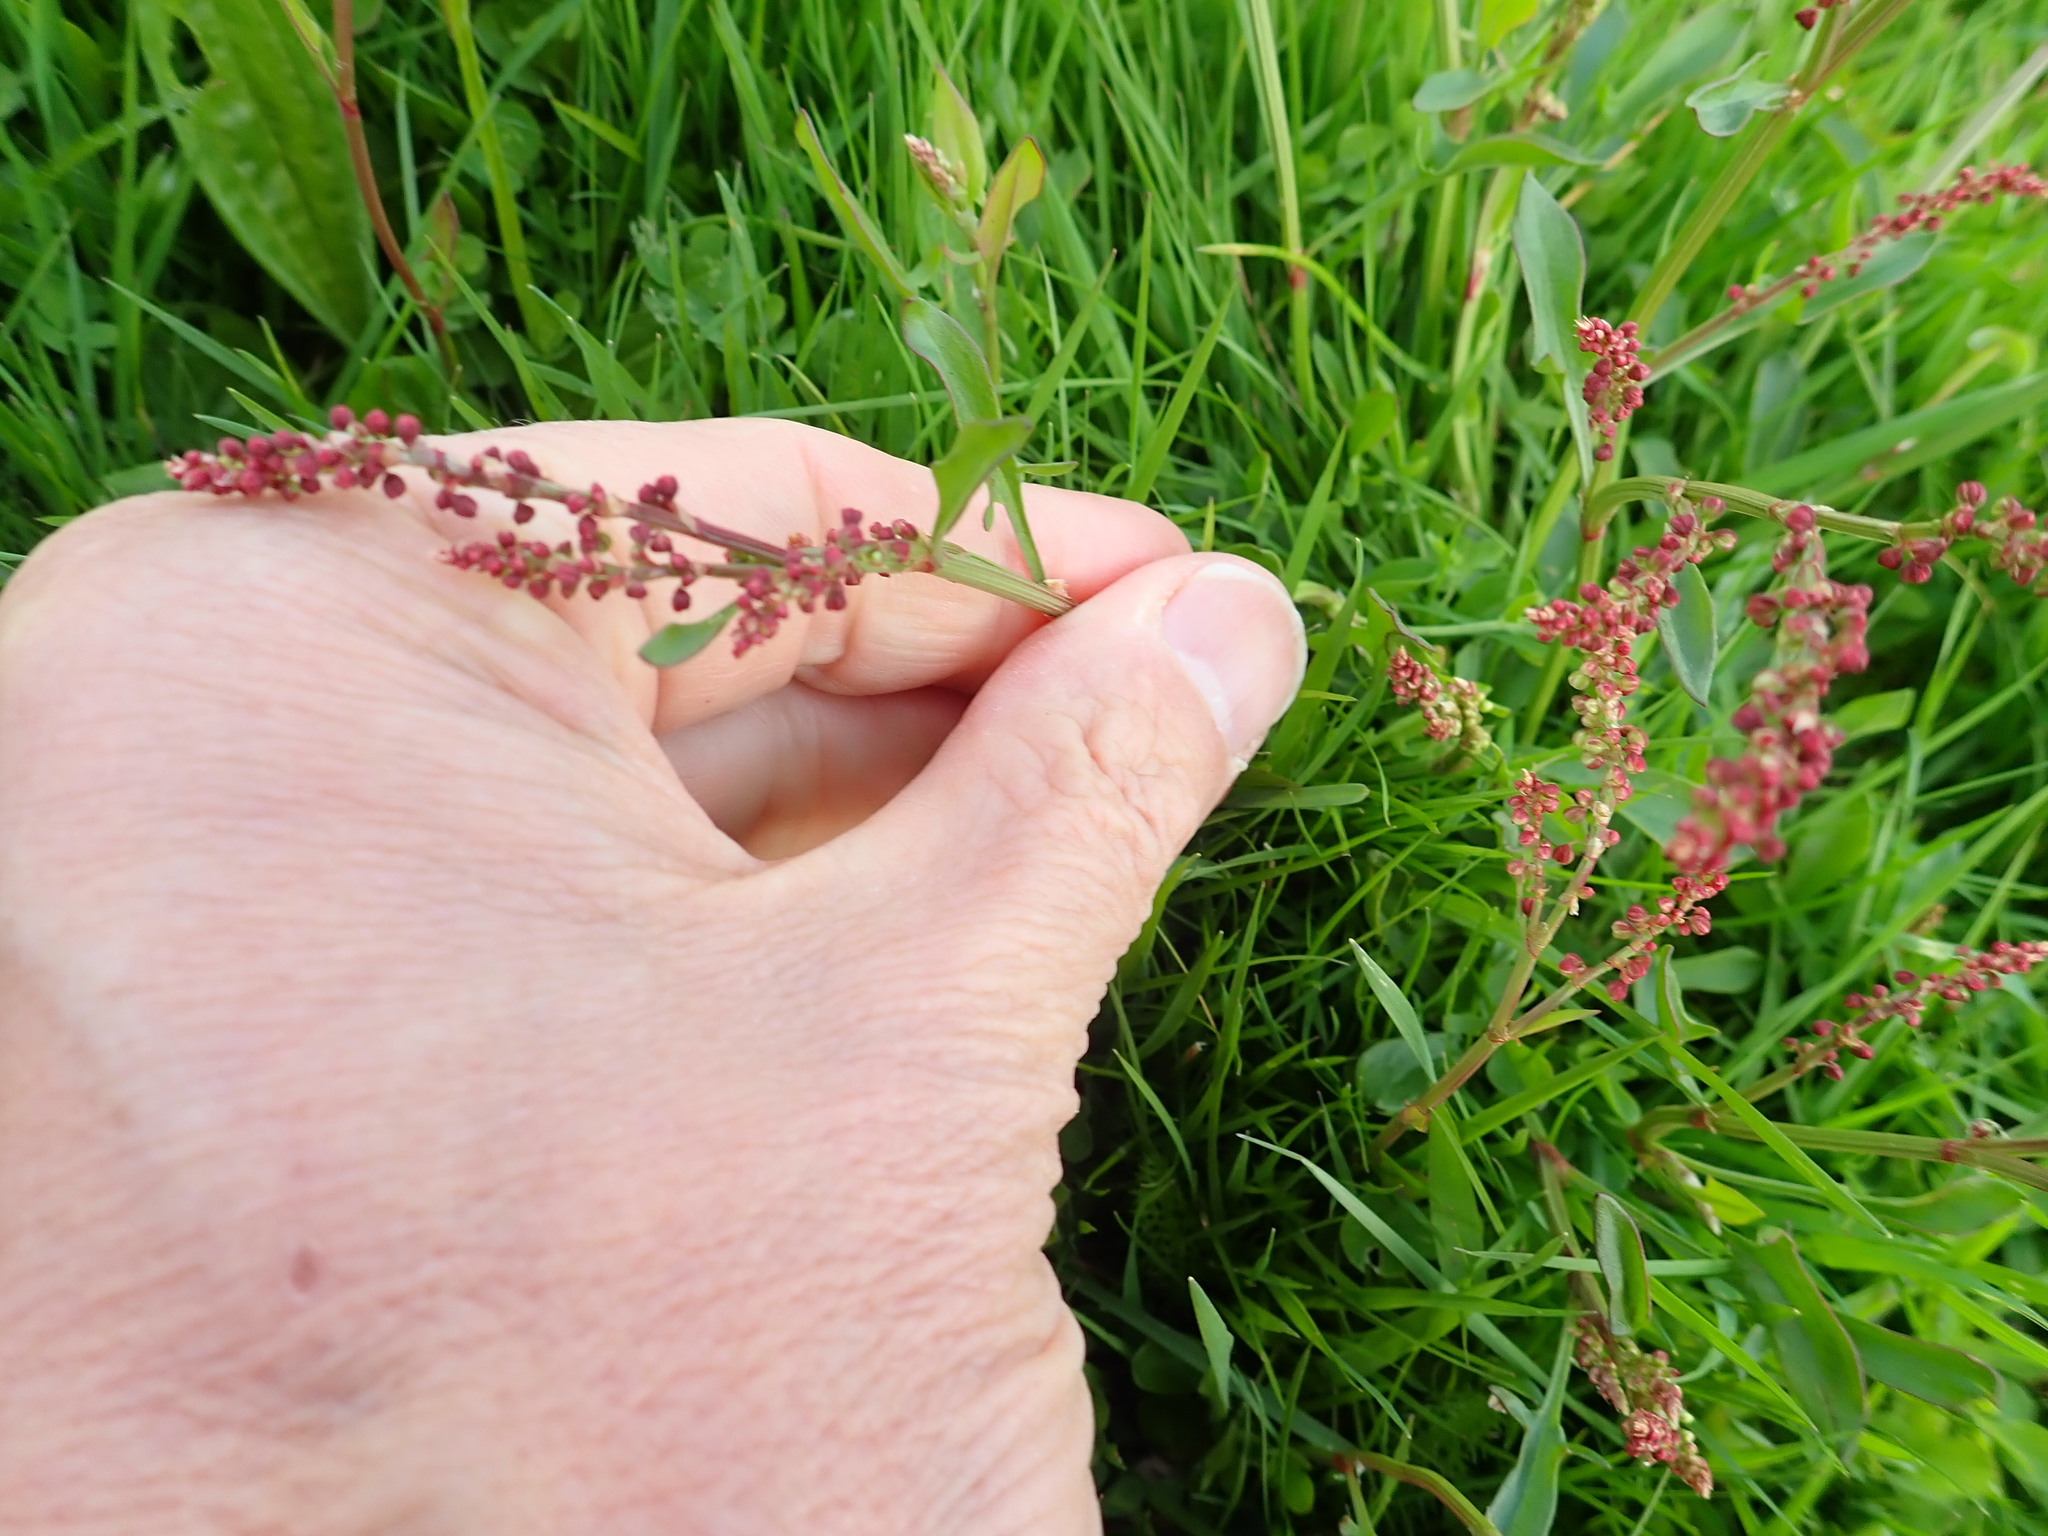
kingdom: Plantae
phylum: Tracheophyta
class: Magnoliopsida
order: Caryophyllales
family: Polygonaceae
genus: Rumex
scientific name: Rumex acetosella
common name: Common sheep sorrel
